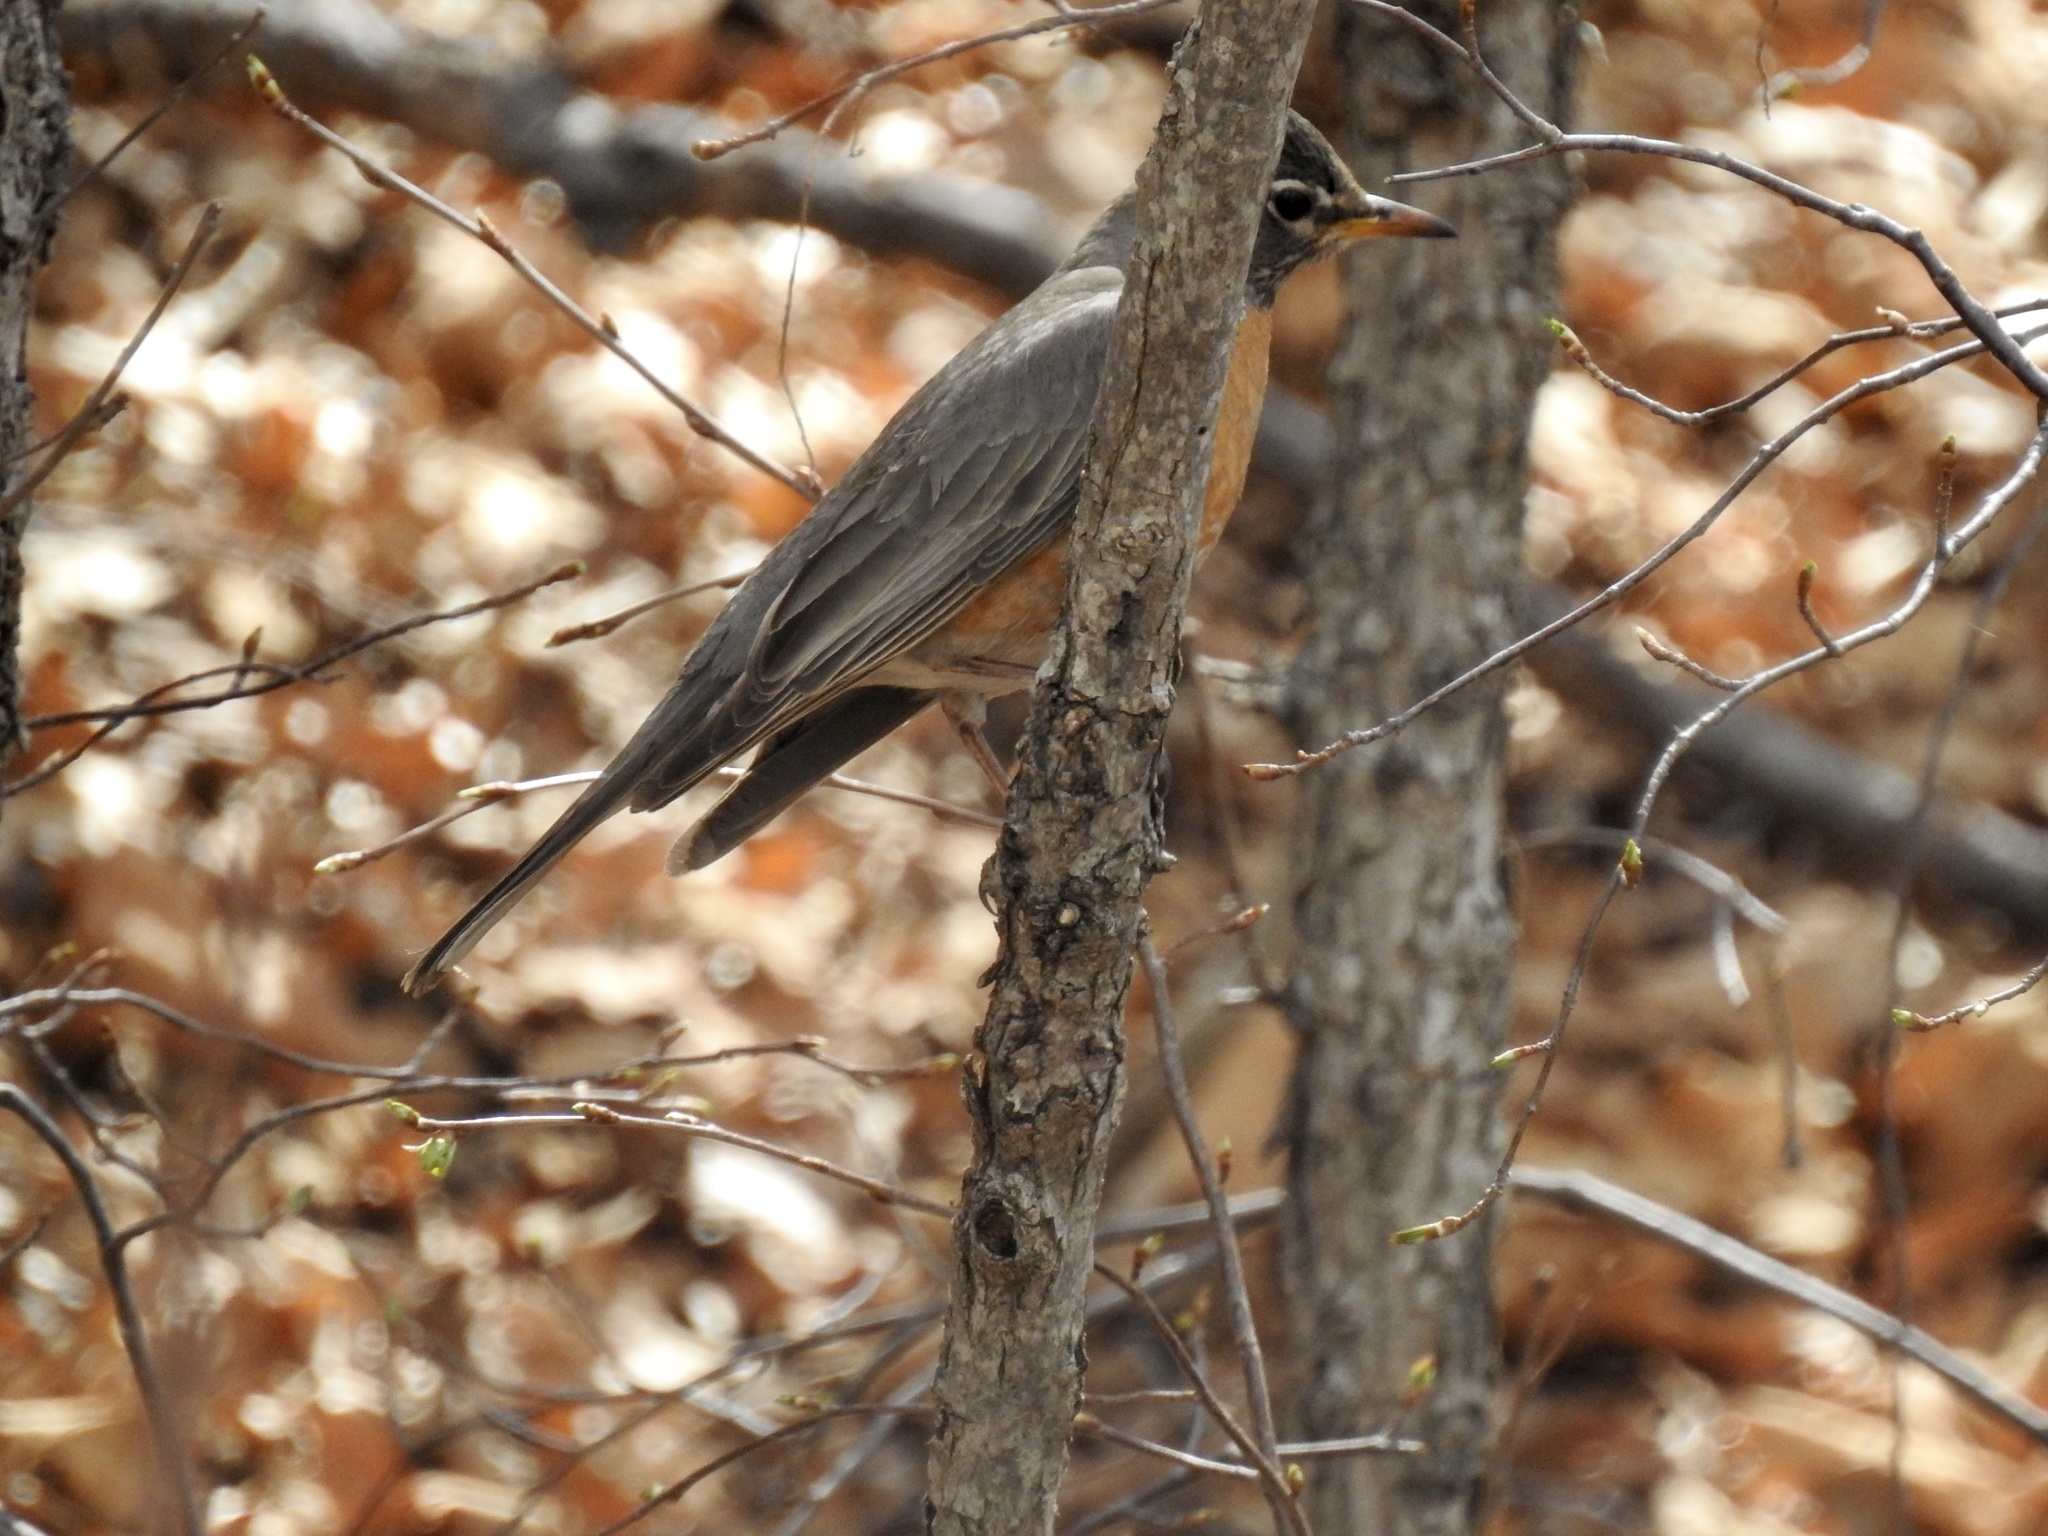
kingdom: Animalia
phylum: Chordata
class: Aves
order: Passeriformes
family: Turdidae
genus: Turdus
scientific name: Turdus migratorius
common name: American robin
